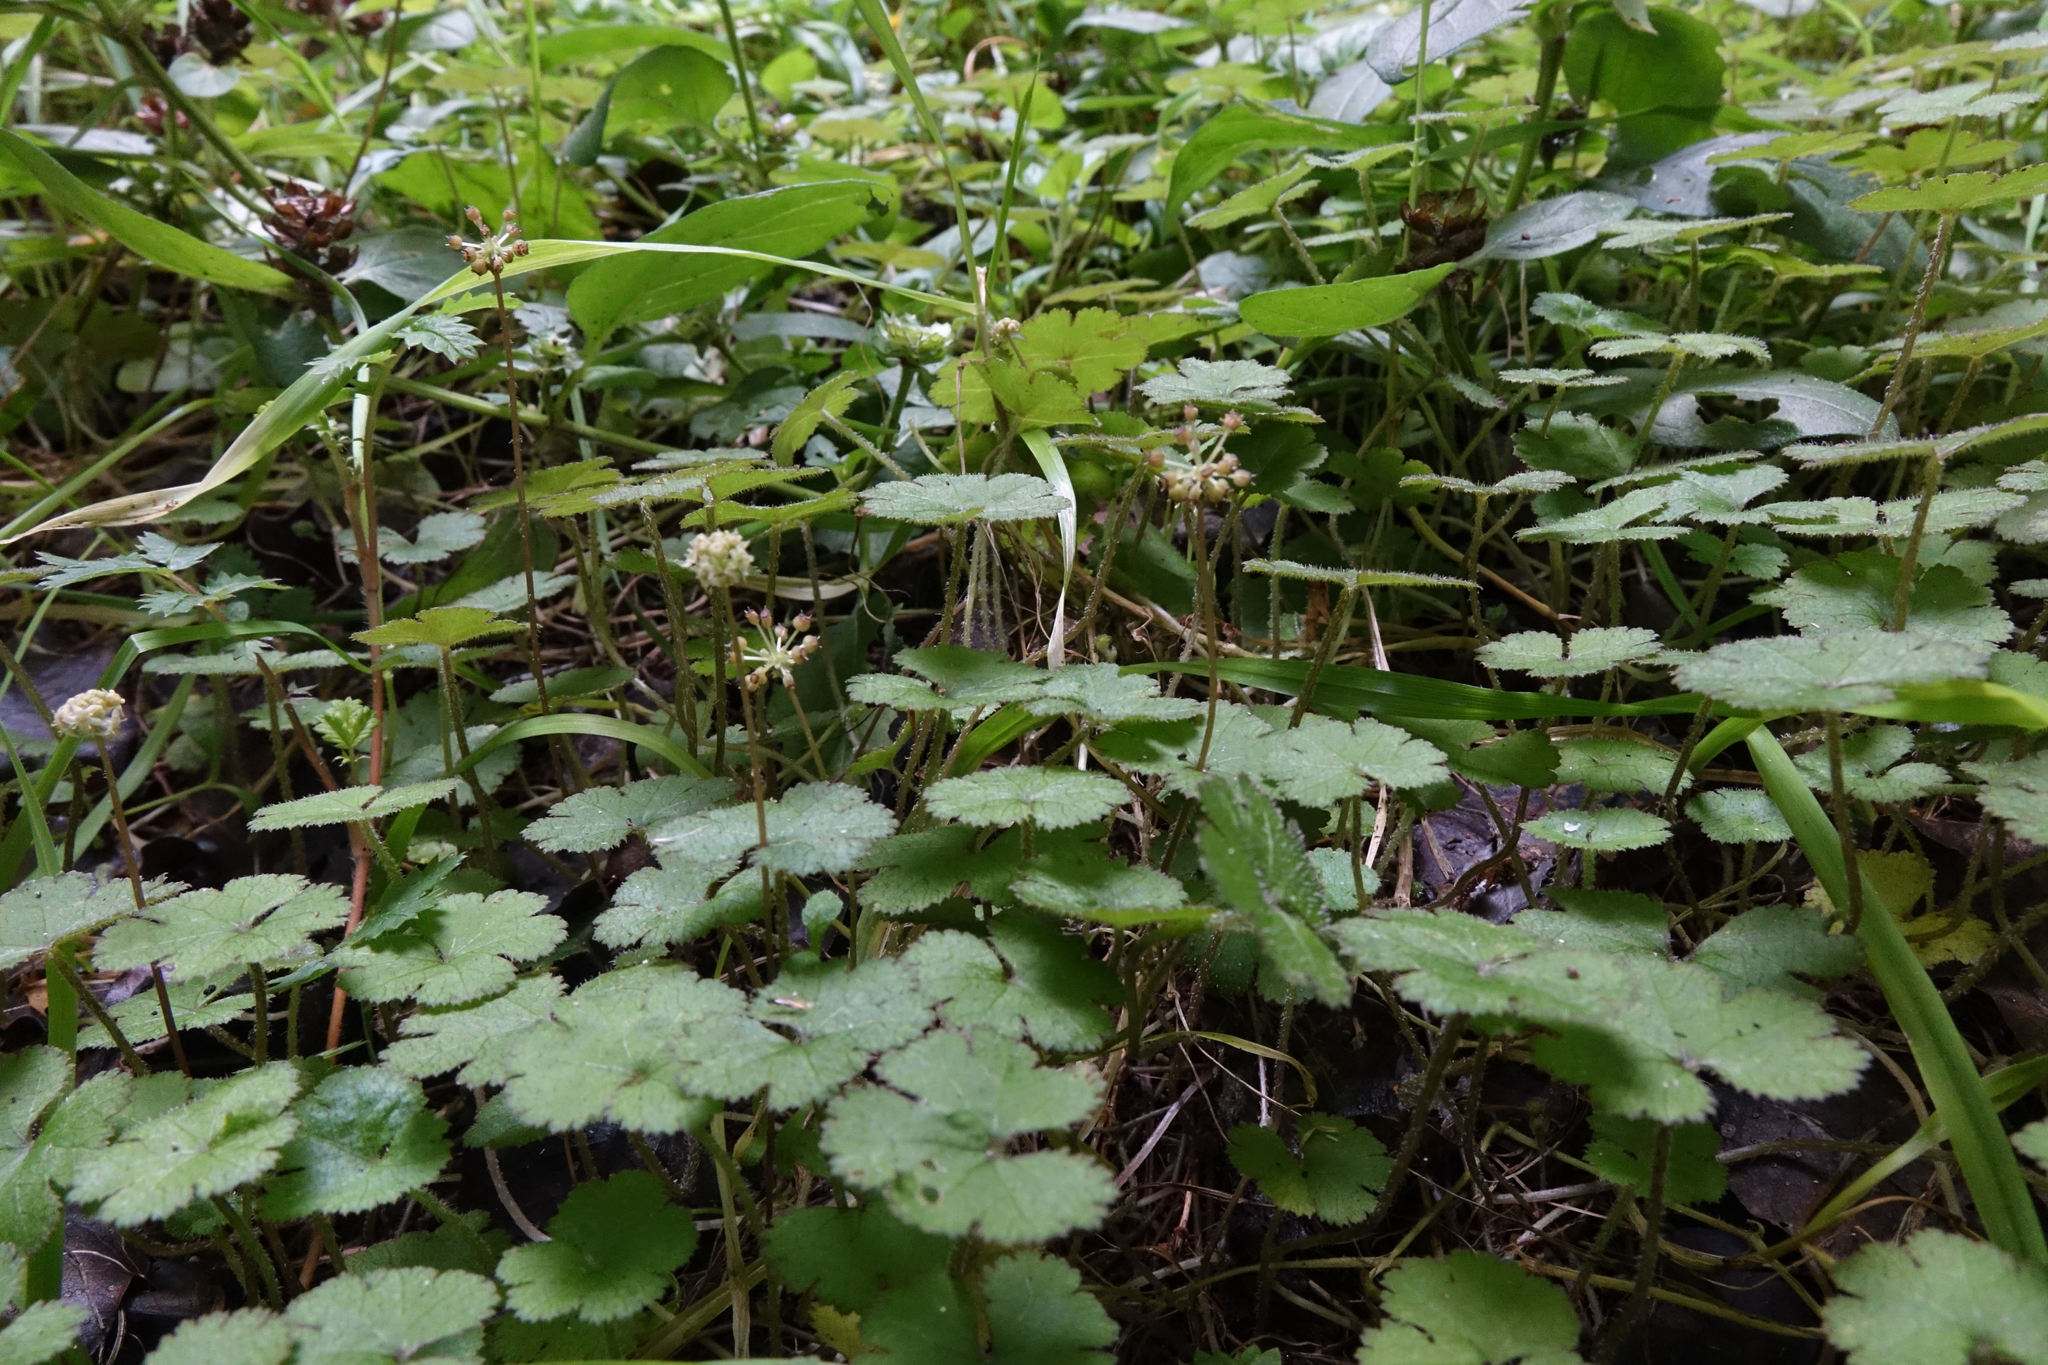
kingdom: Plantae
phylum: Tracheophyta
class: Magnoliopsida
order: Apiales
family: Araliaceae
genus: Hydrocotyle
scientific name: Hydrocotyle elongata
